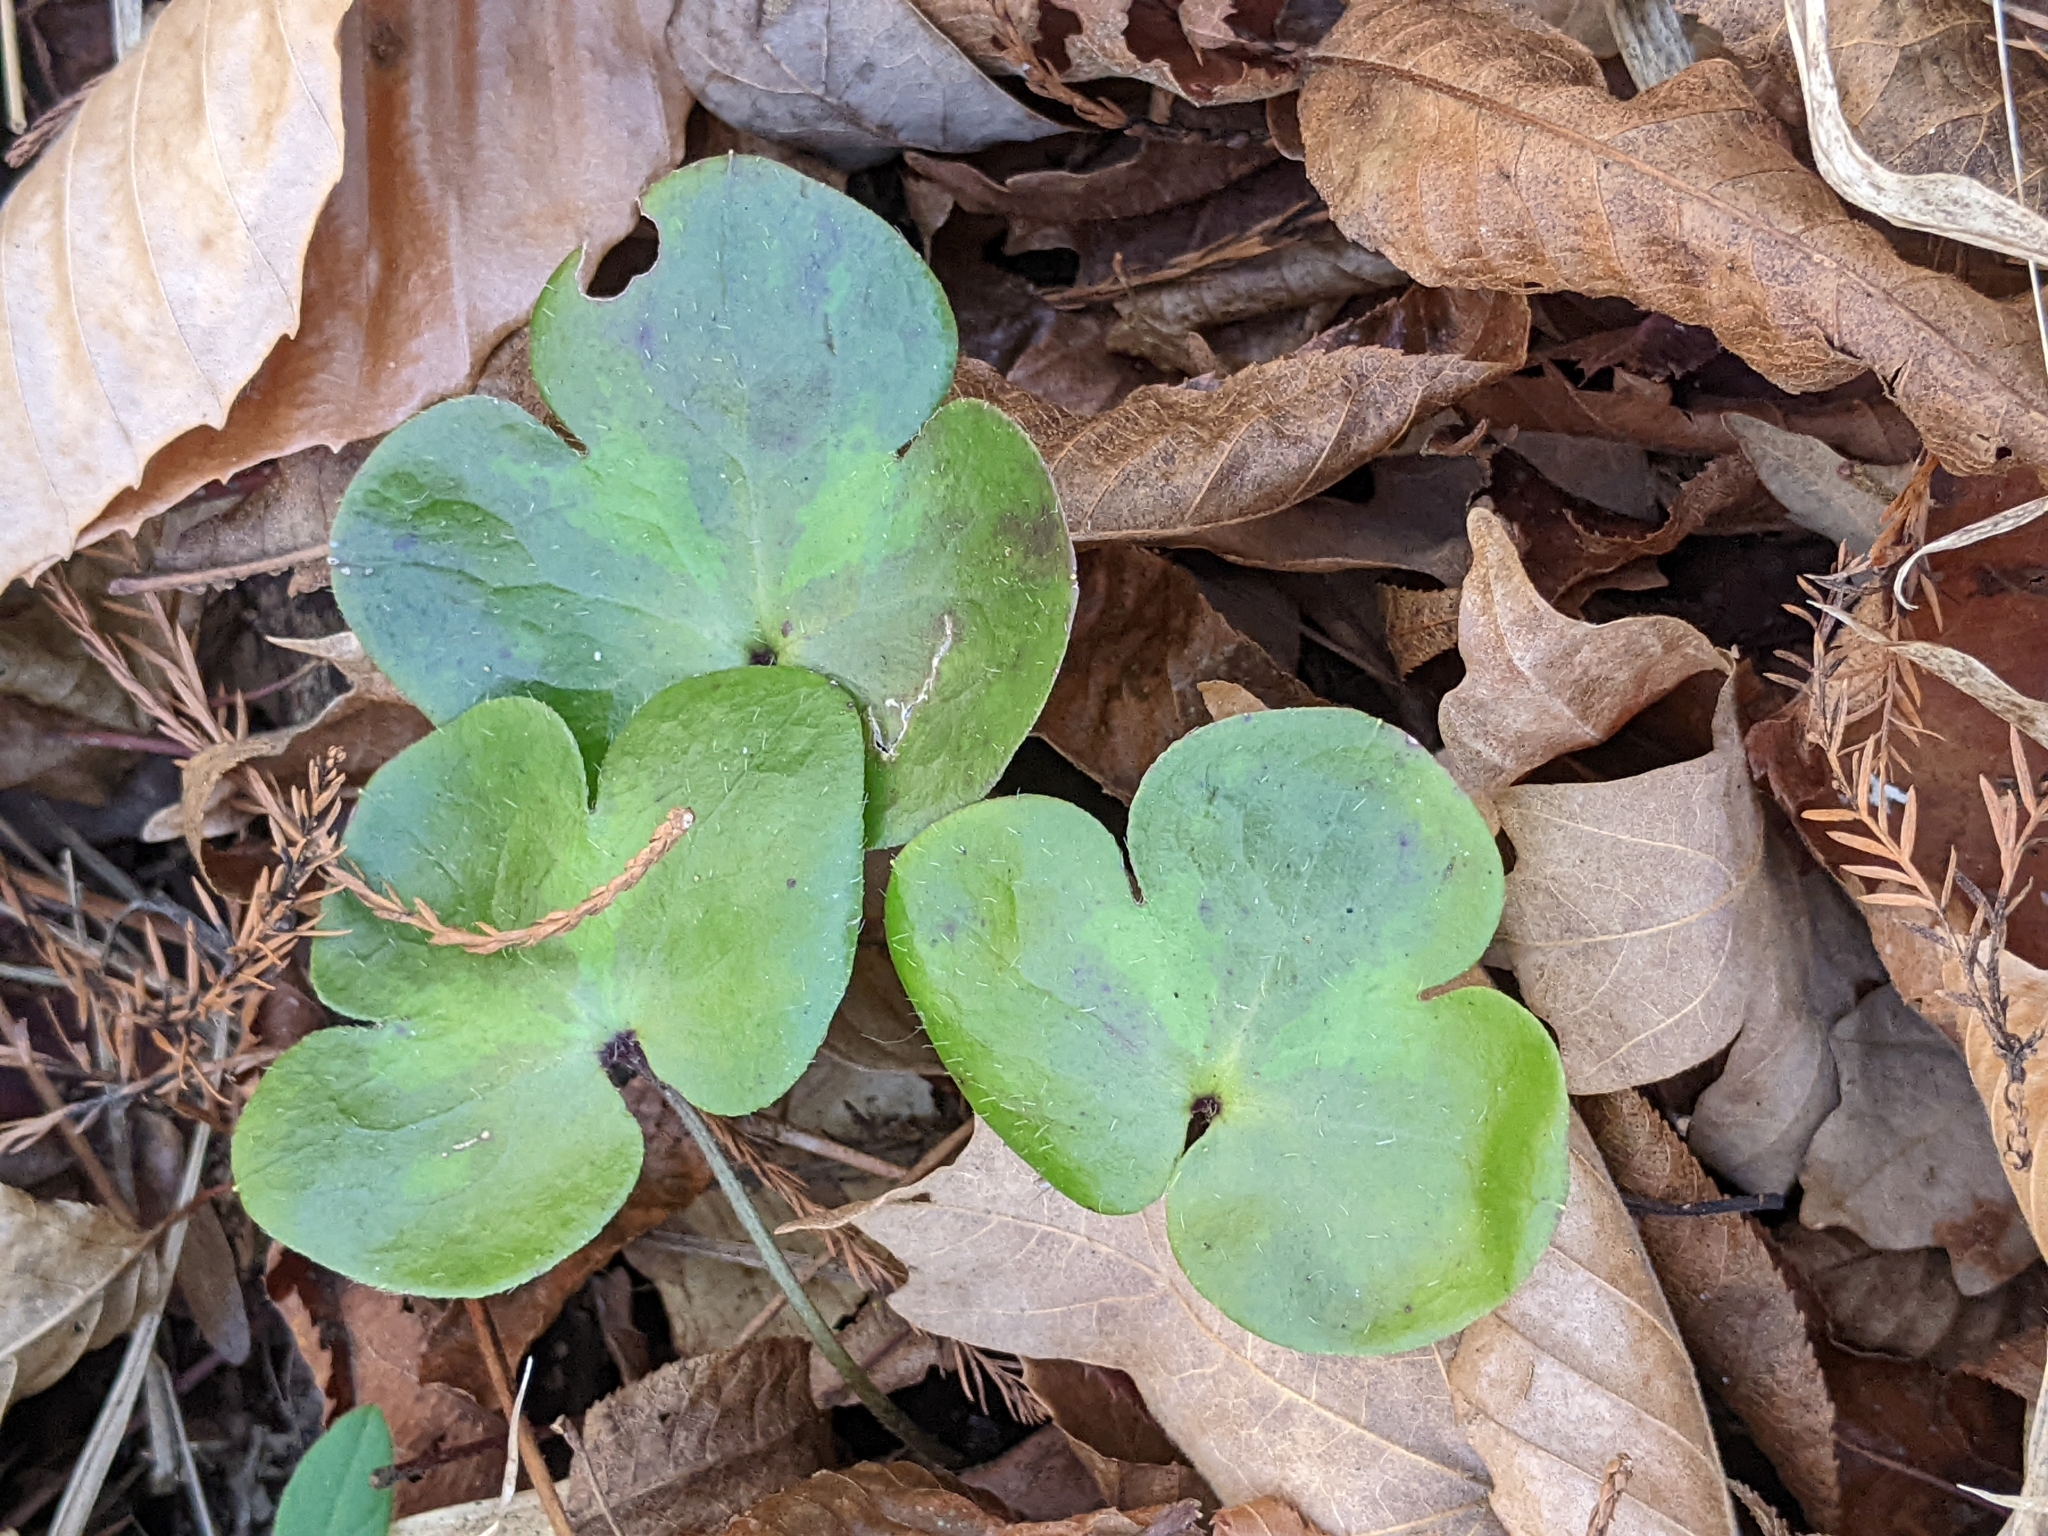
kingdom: Plantae
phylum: Tracheophyta
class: Magnoliopsida
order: Ranunculales
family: Ranunculaceae
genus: Hepatica
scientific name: Hepatica americana
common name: American hepatica
